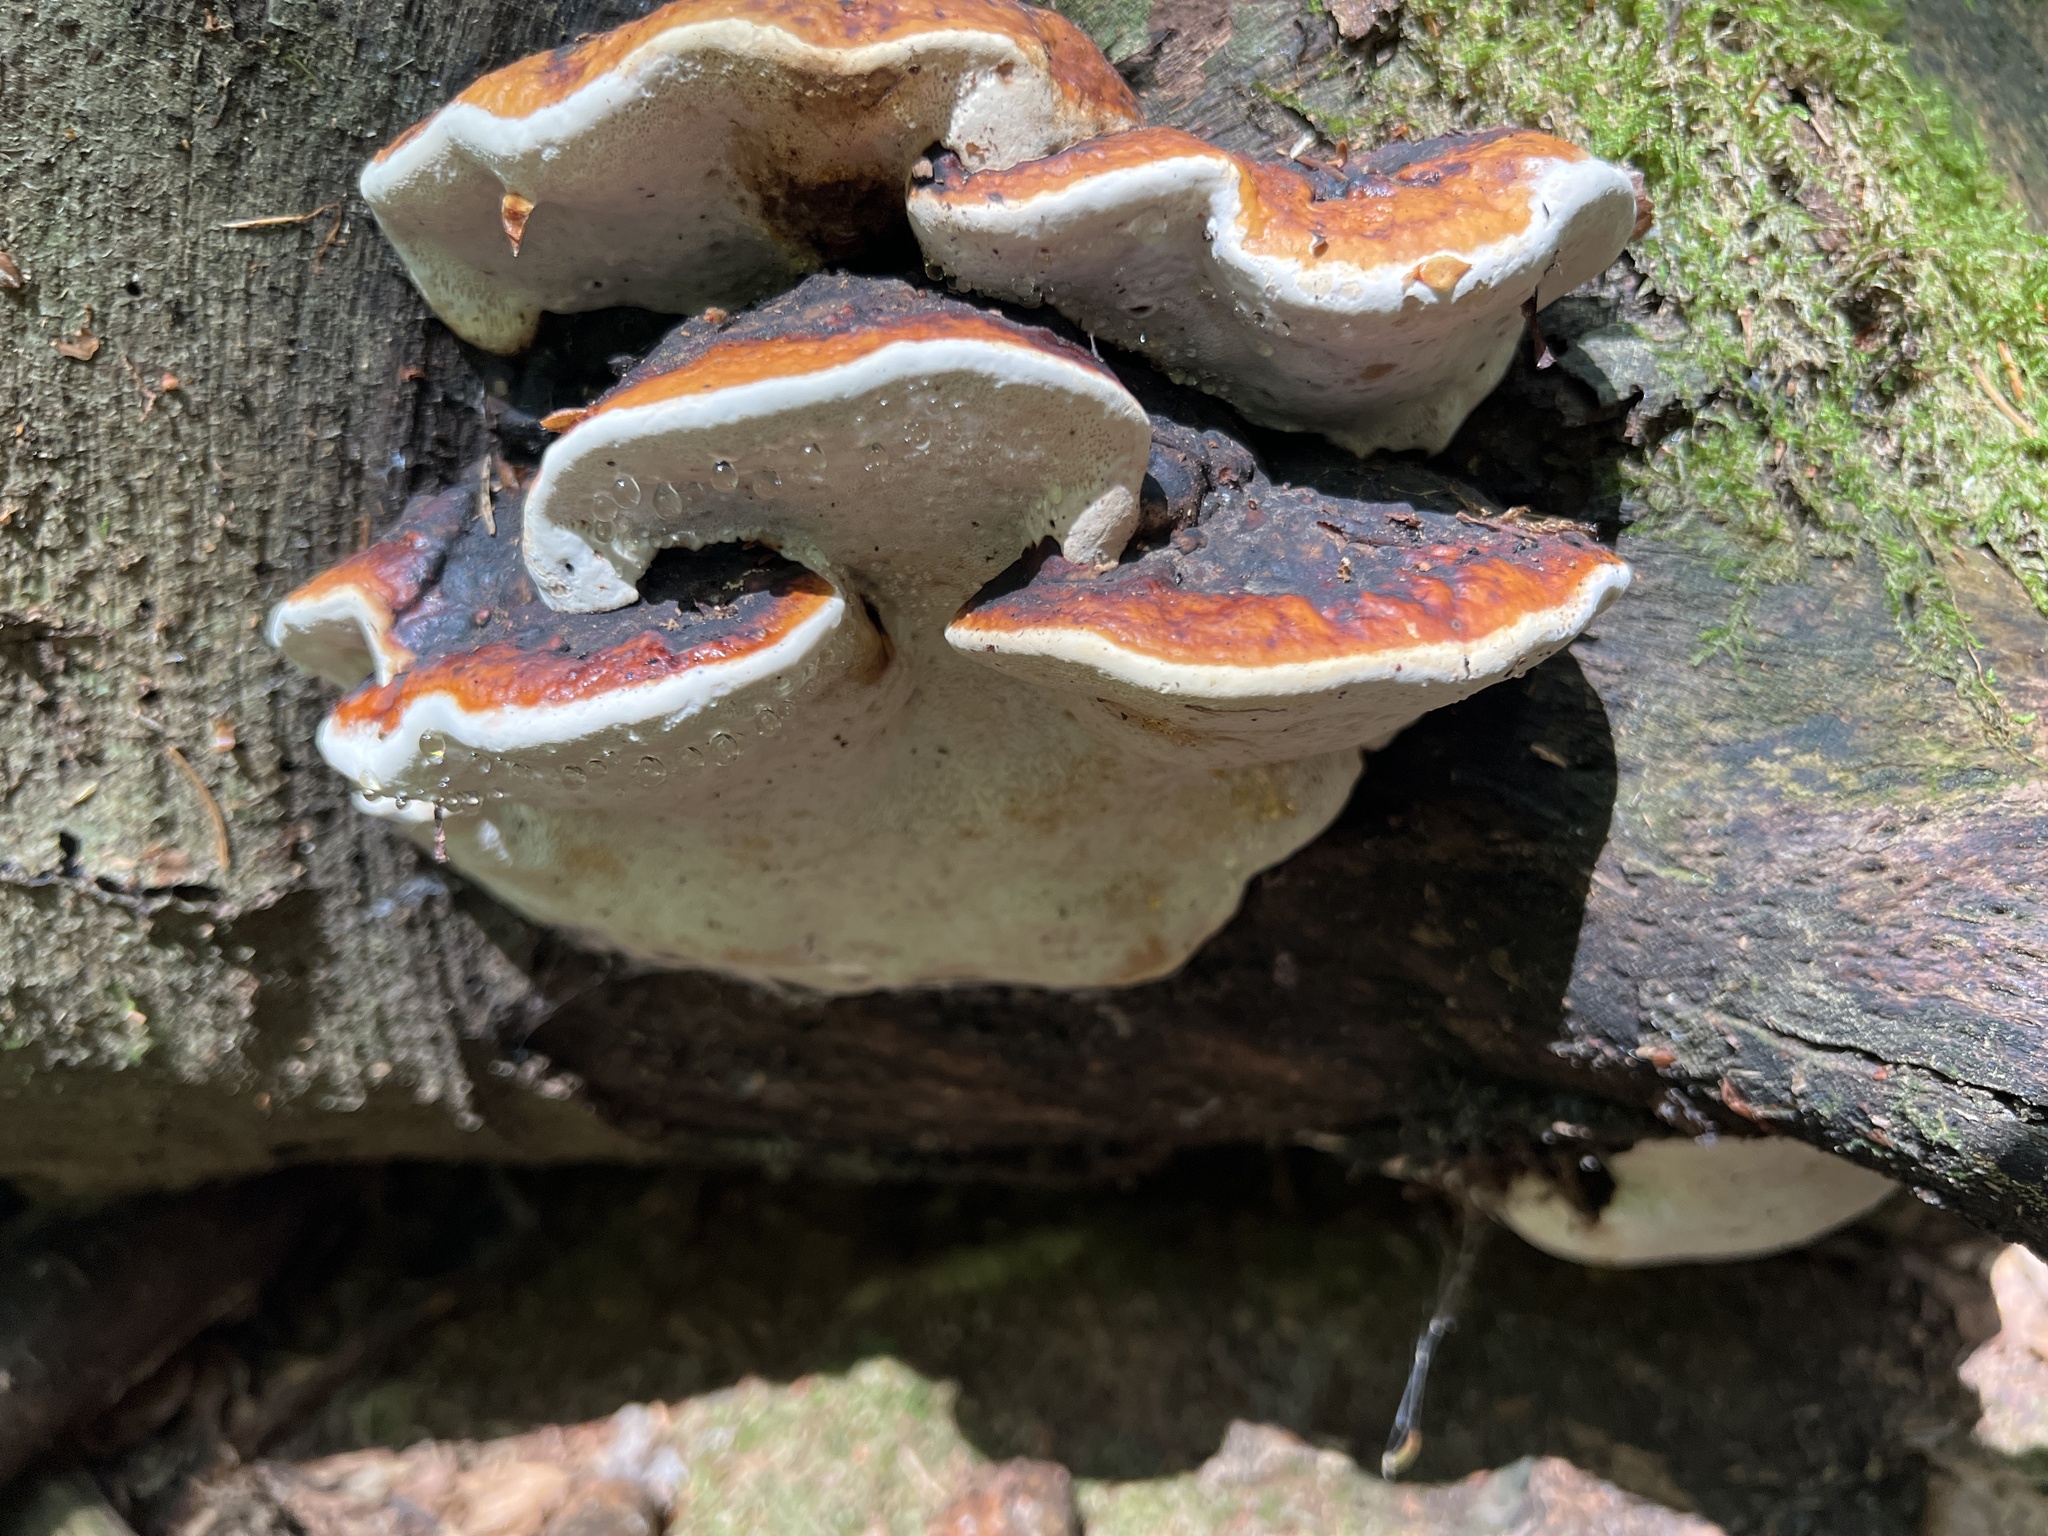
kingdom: Fungi
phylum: Basidiomycota
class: Agaricomycetes
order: Polyporales
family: Fomitopsidaceae
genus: Fomitopsis
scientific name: Fomitopsis pinicola
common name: Red-belted bracket
